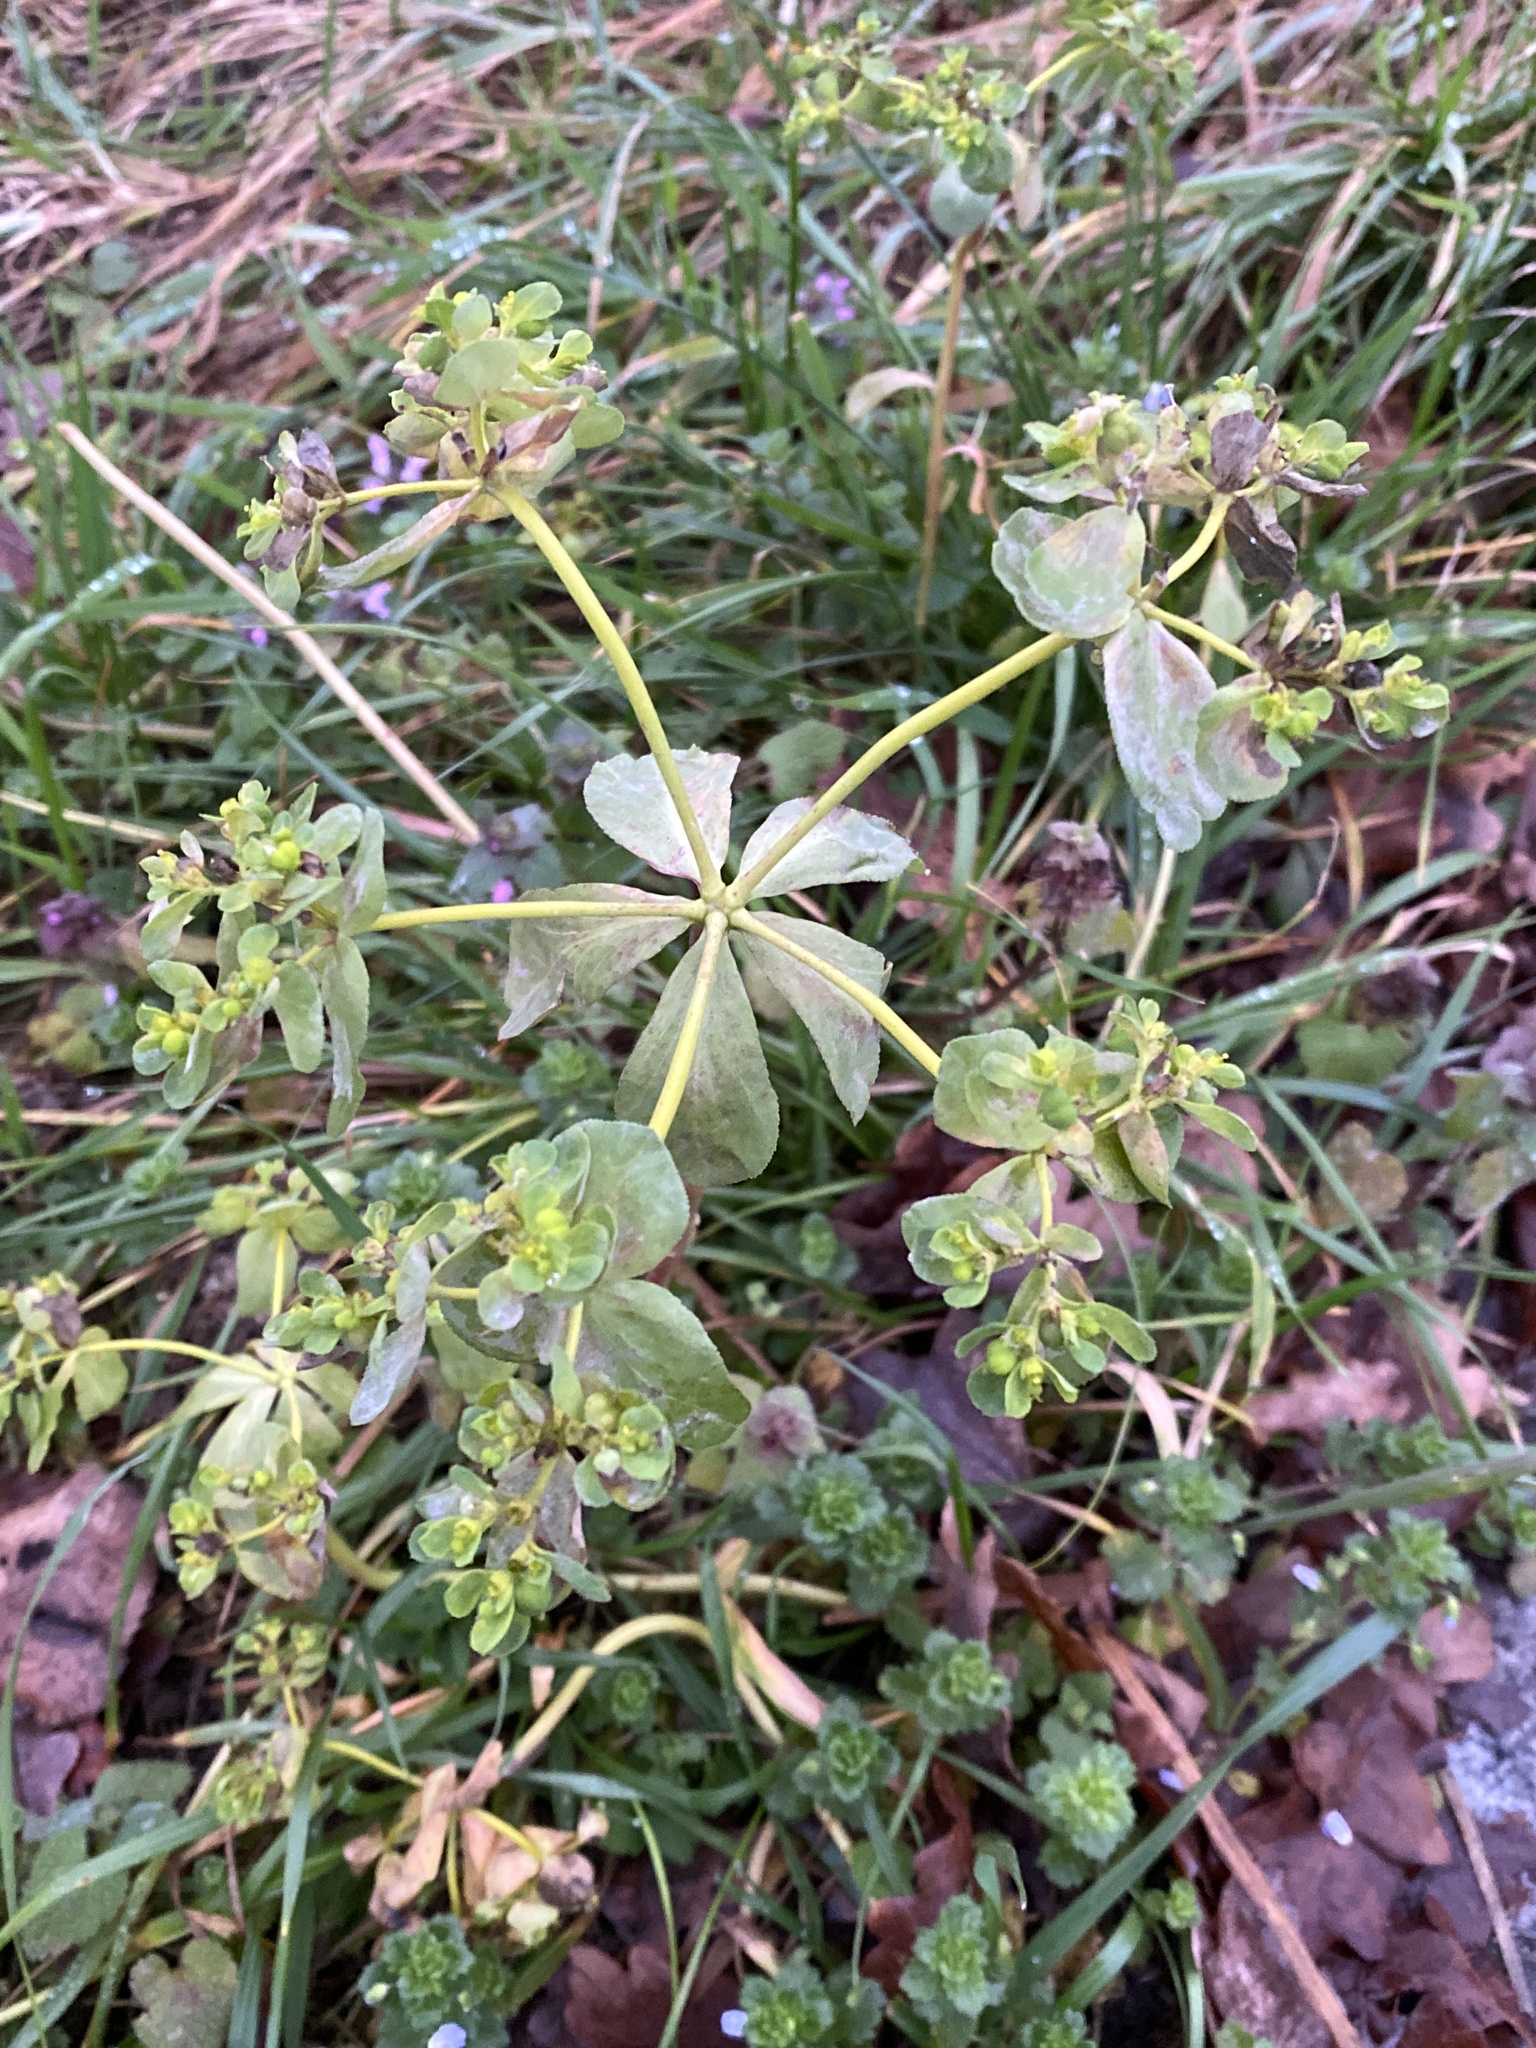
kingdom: Plantae
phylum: Tracheophyta
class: Magnoliopsida
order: Malpighiales
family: Euphorbiaceae
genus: Euphorbia
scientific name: Euphorbia helioscopia
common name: Sun spurge
